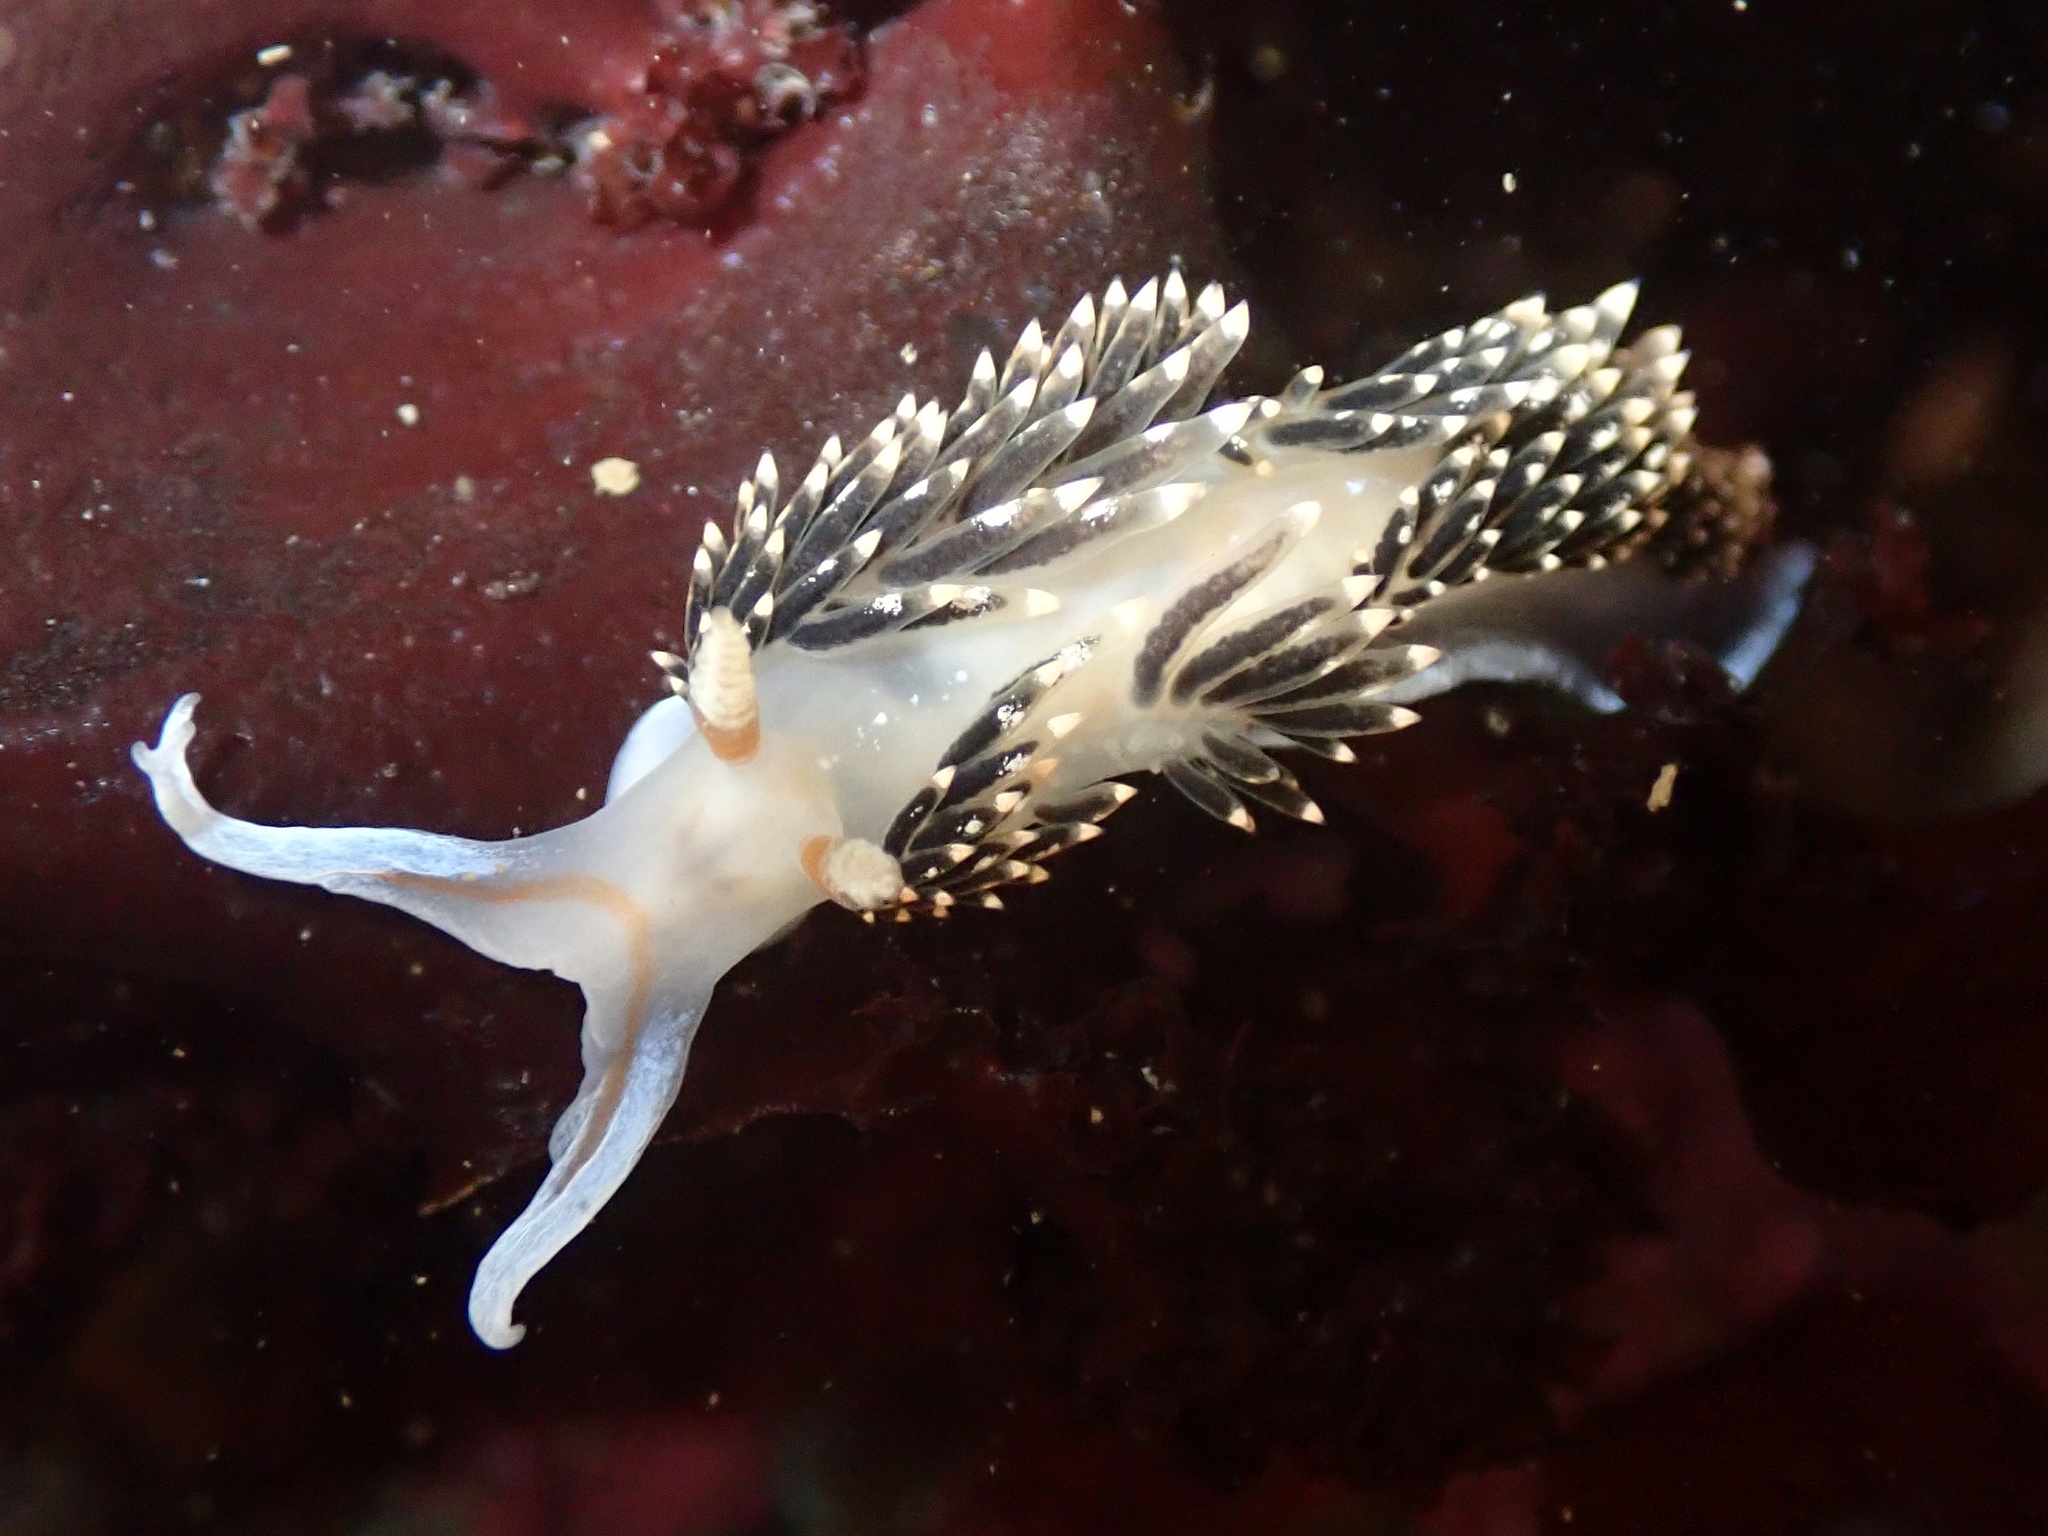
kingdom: Animalia
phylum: Mollusca
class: Gastropoda
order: Nudibranchia
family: Facelinidae
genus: Phidiana
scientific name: Phidiana hiltoni
